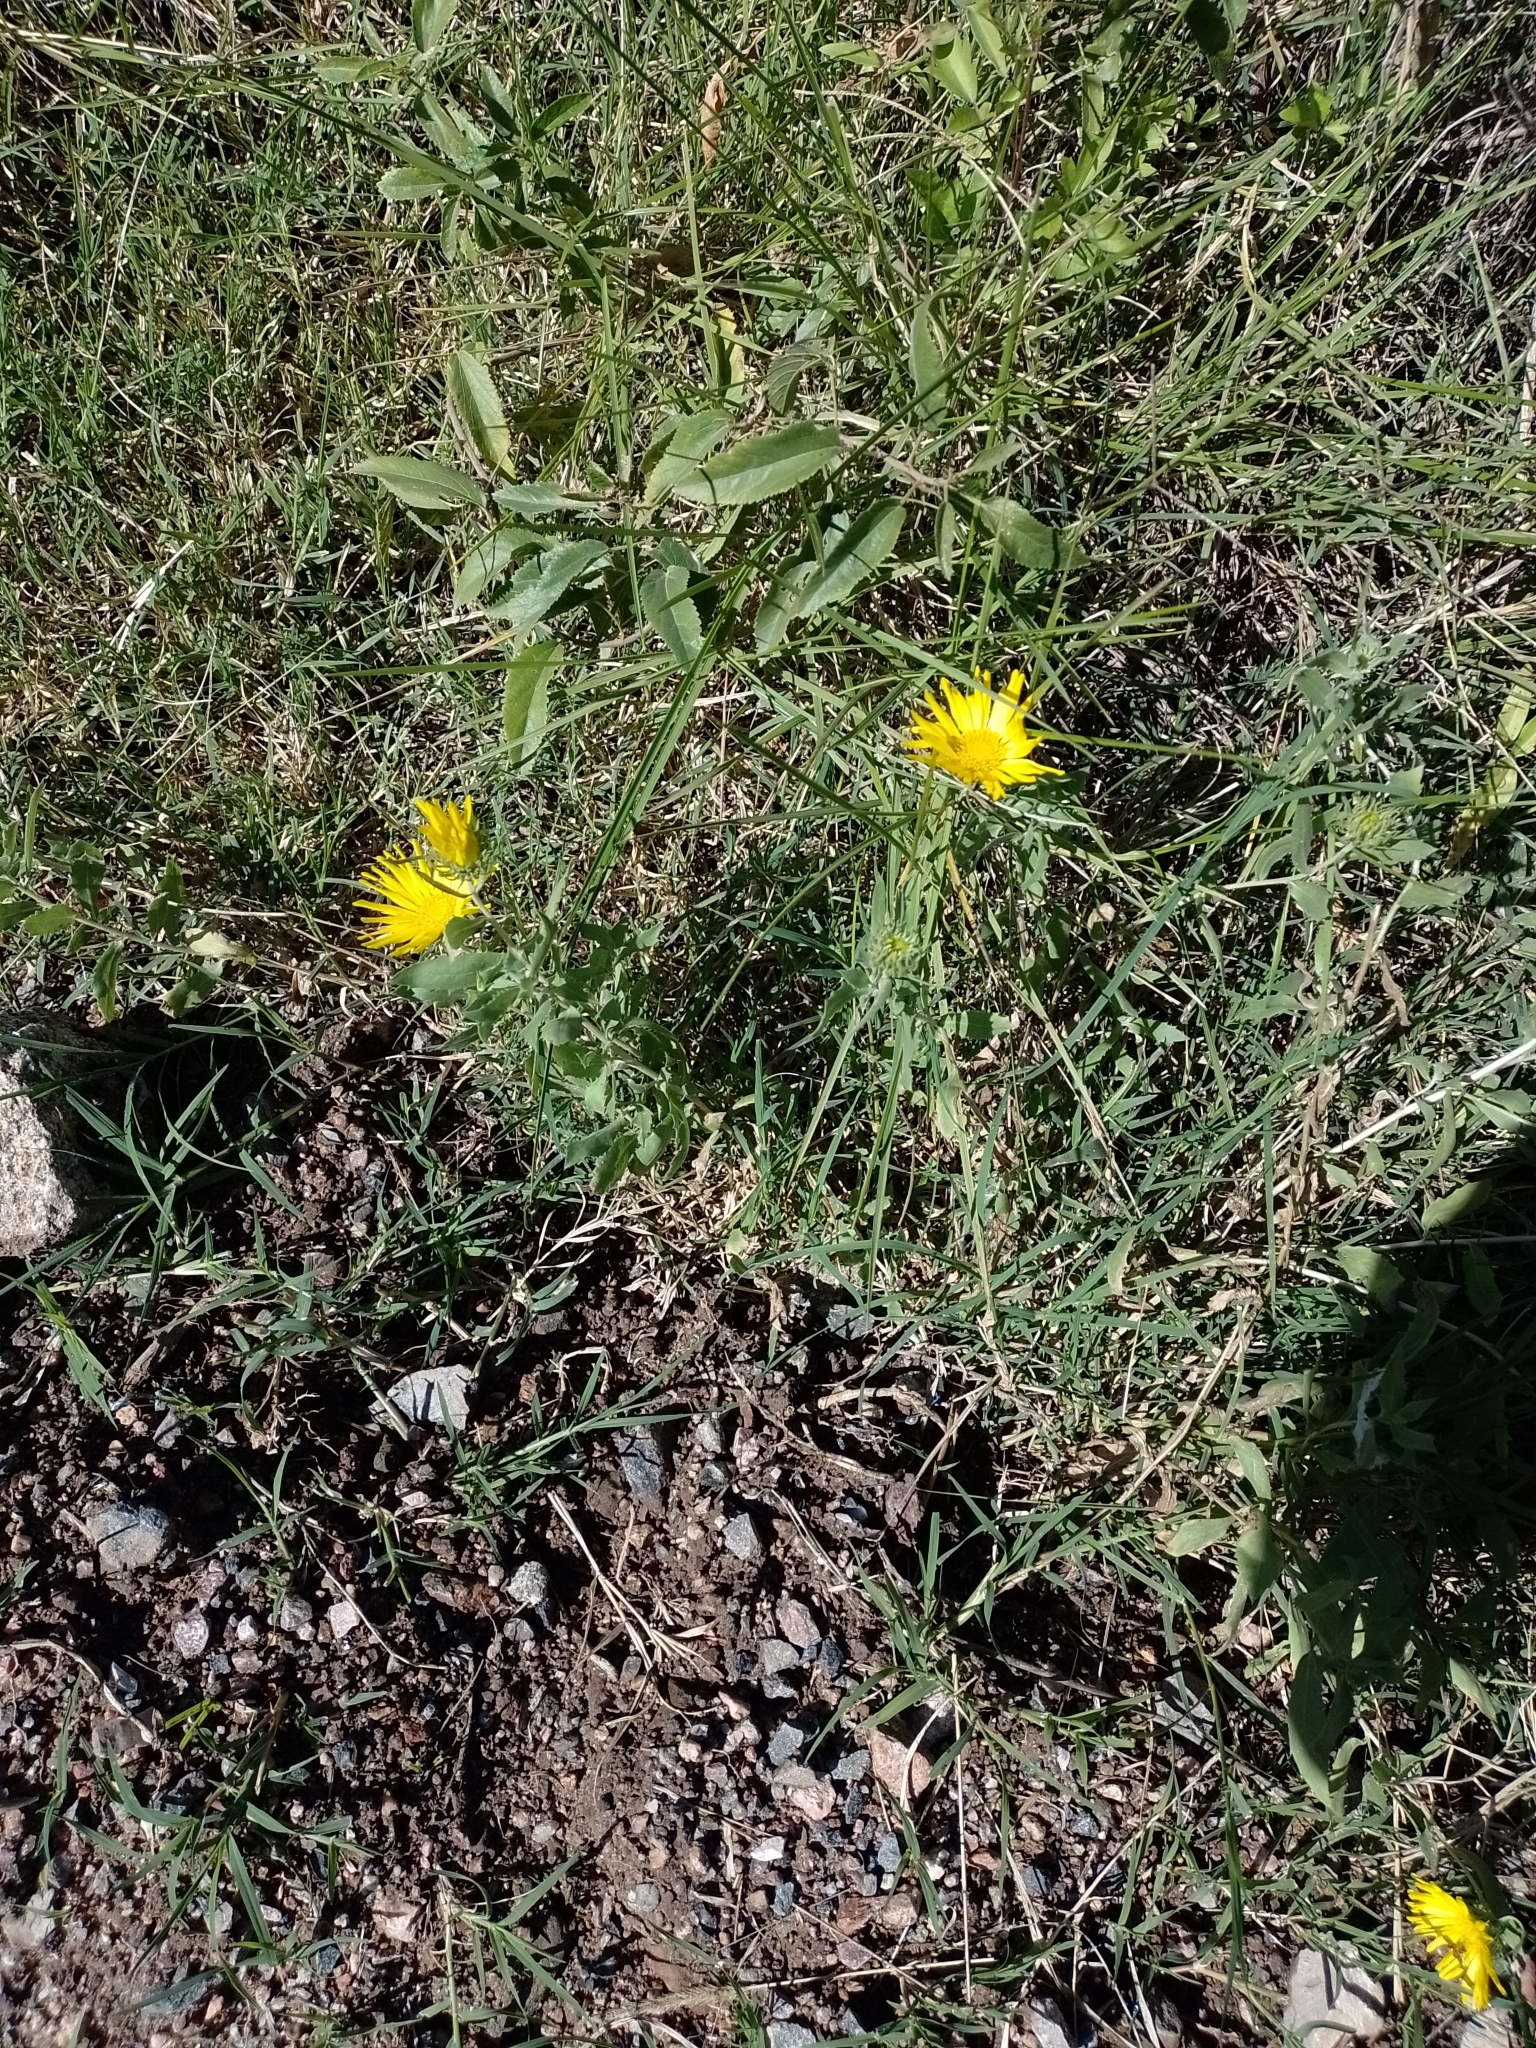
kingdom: Plantae
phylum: Tracheophyta
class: Magnoliopsida
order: Asterales
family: Asteraceae
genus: Grindelia
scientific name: Grindelia pulchella
